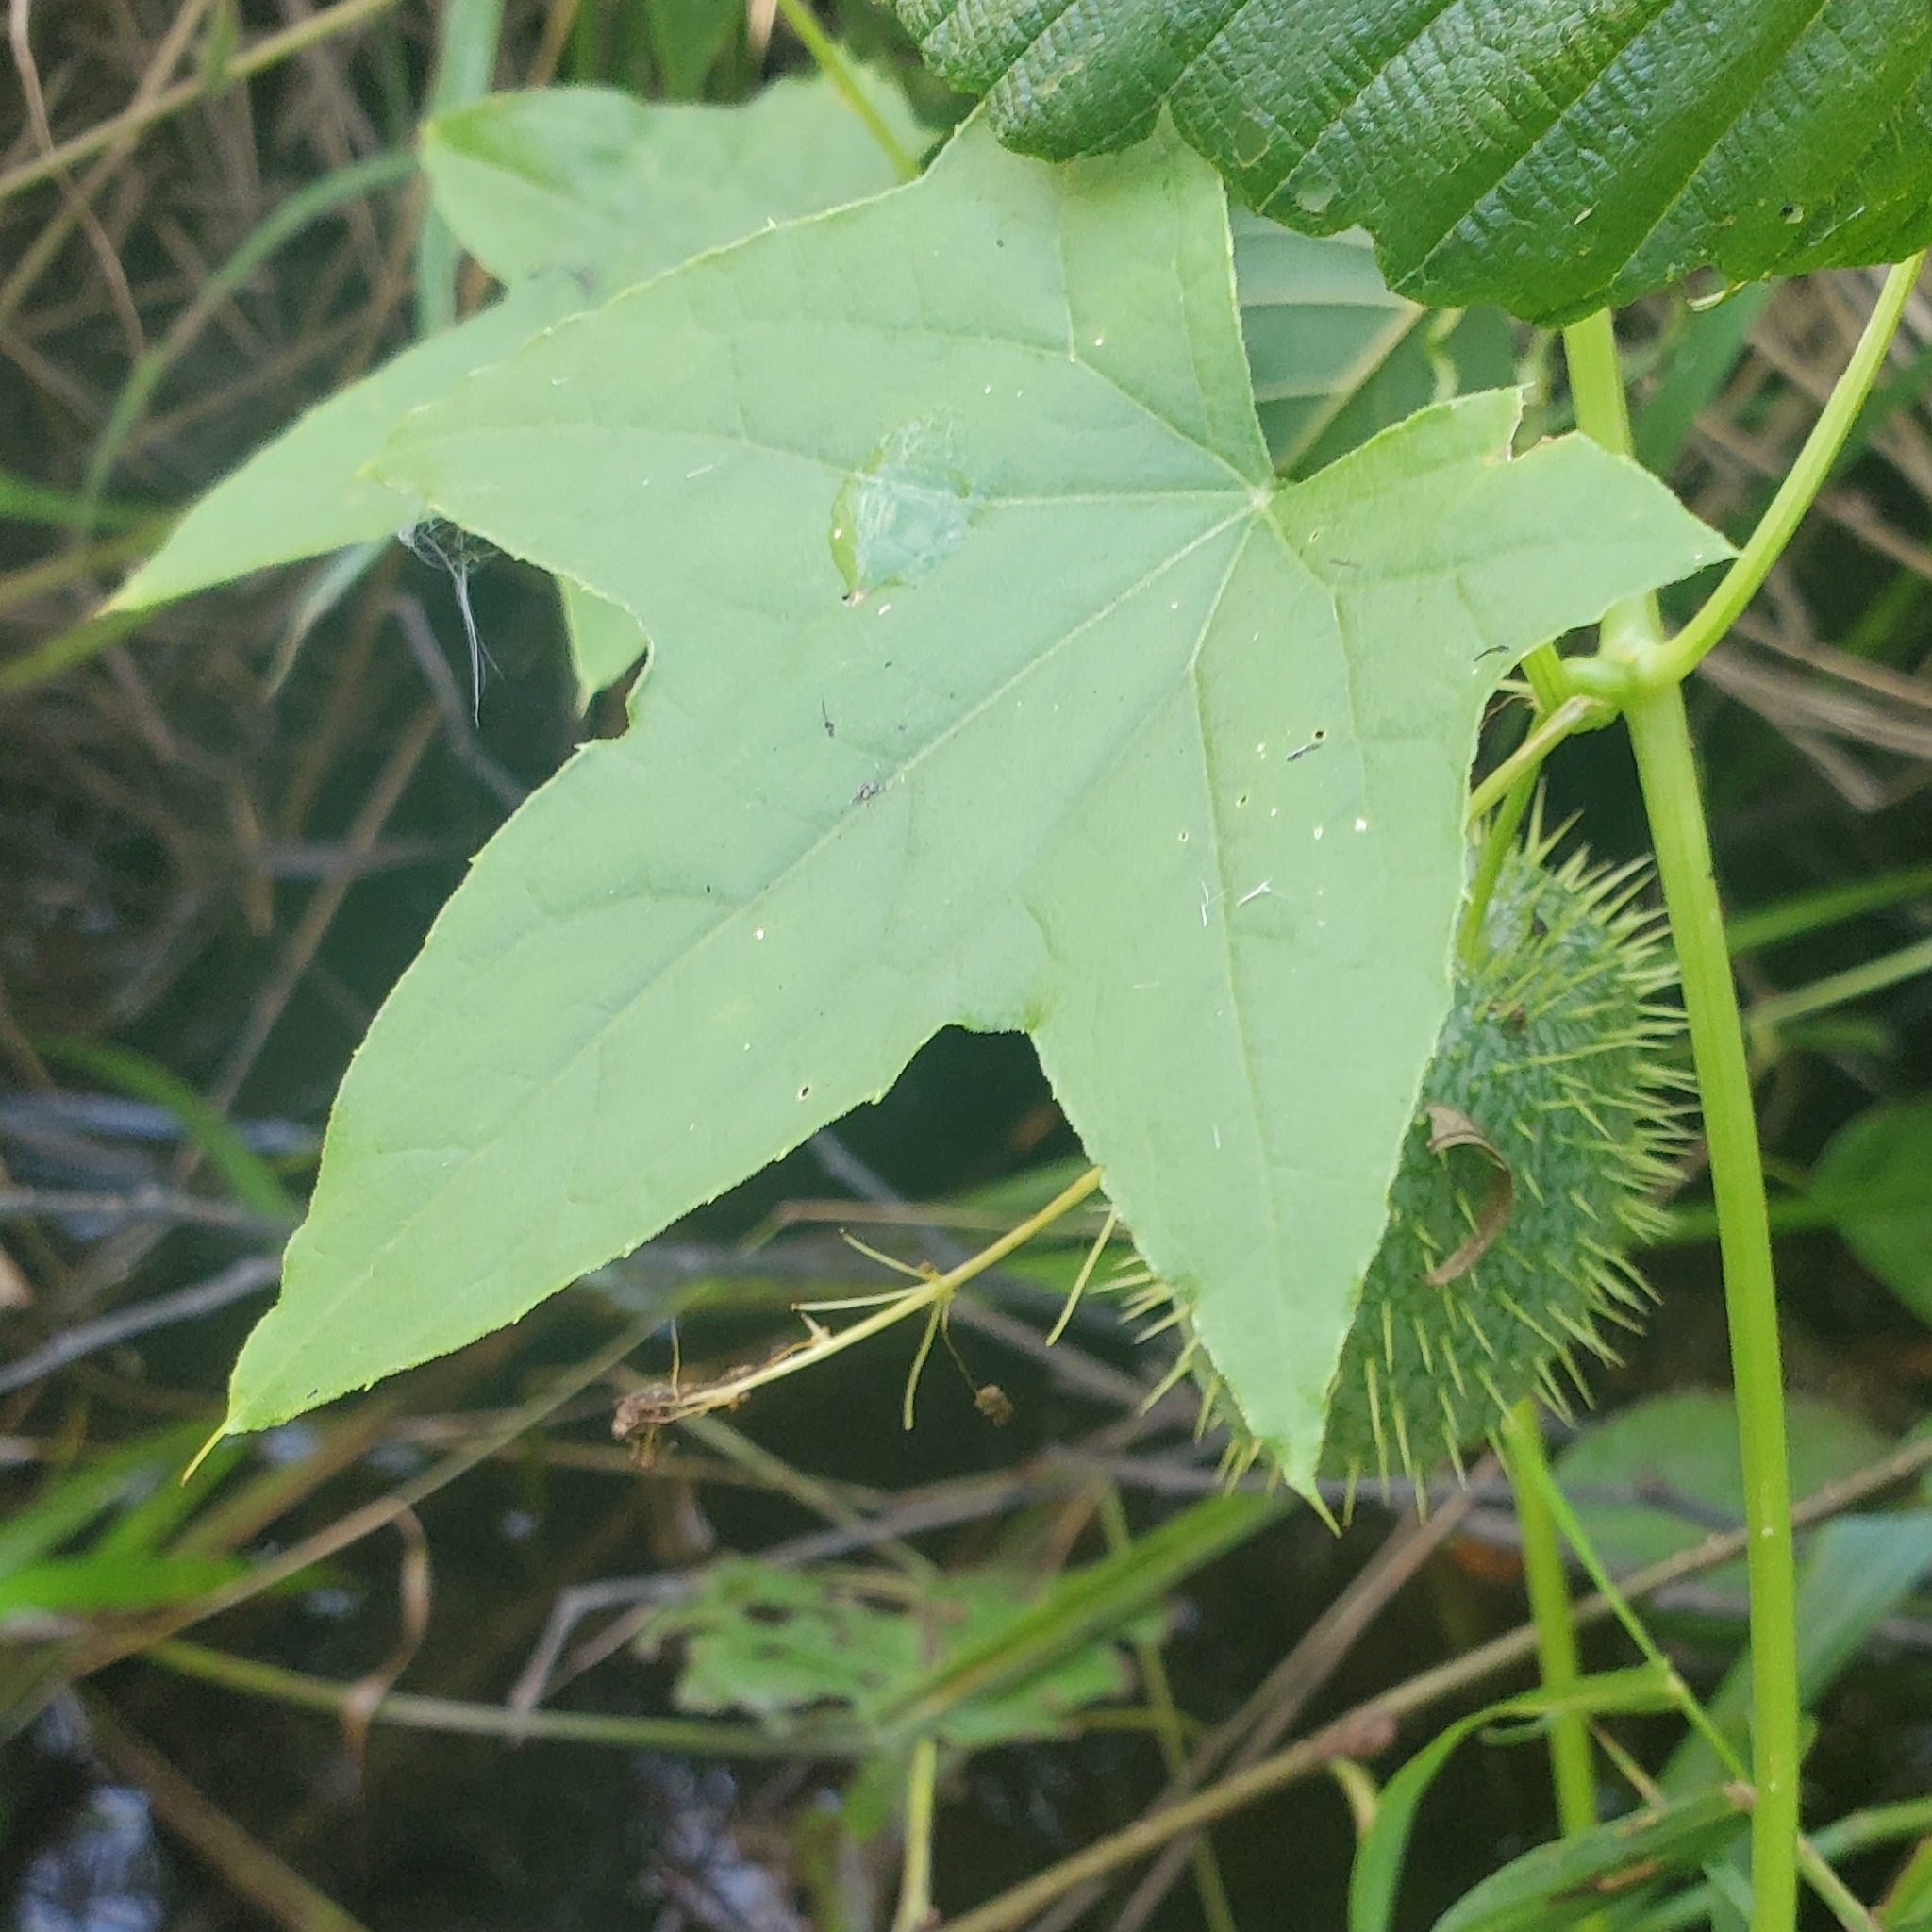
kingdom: Plantae
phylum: Tracheophyta
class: Magnoliopsida
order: Cucurbitales
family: Cucurbitaceae
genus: Echinocystis
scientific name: Echinocystis lobata
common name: Wild cucumber
